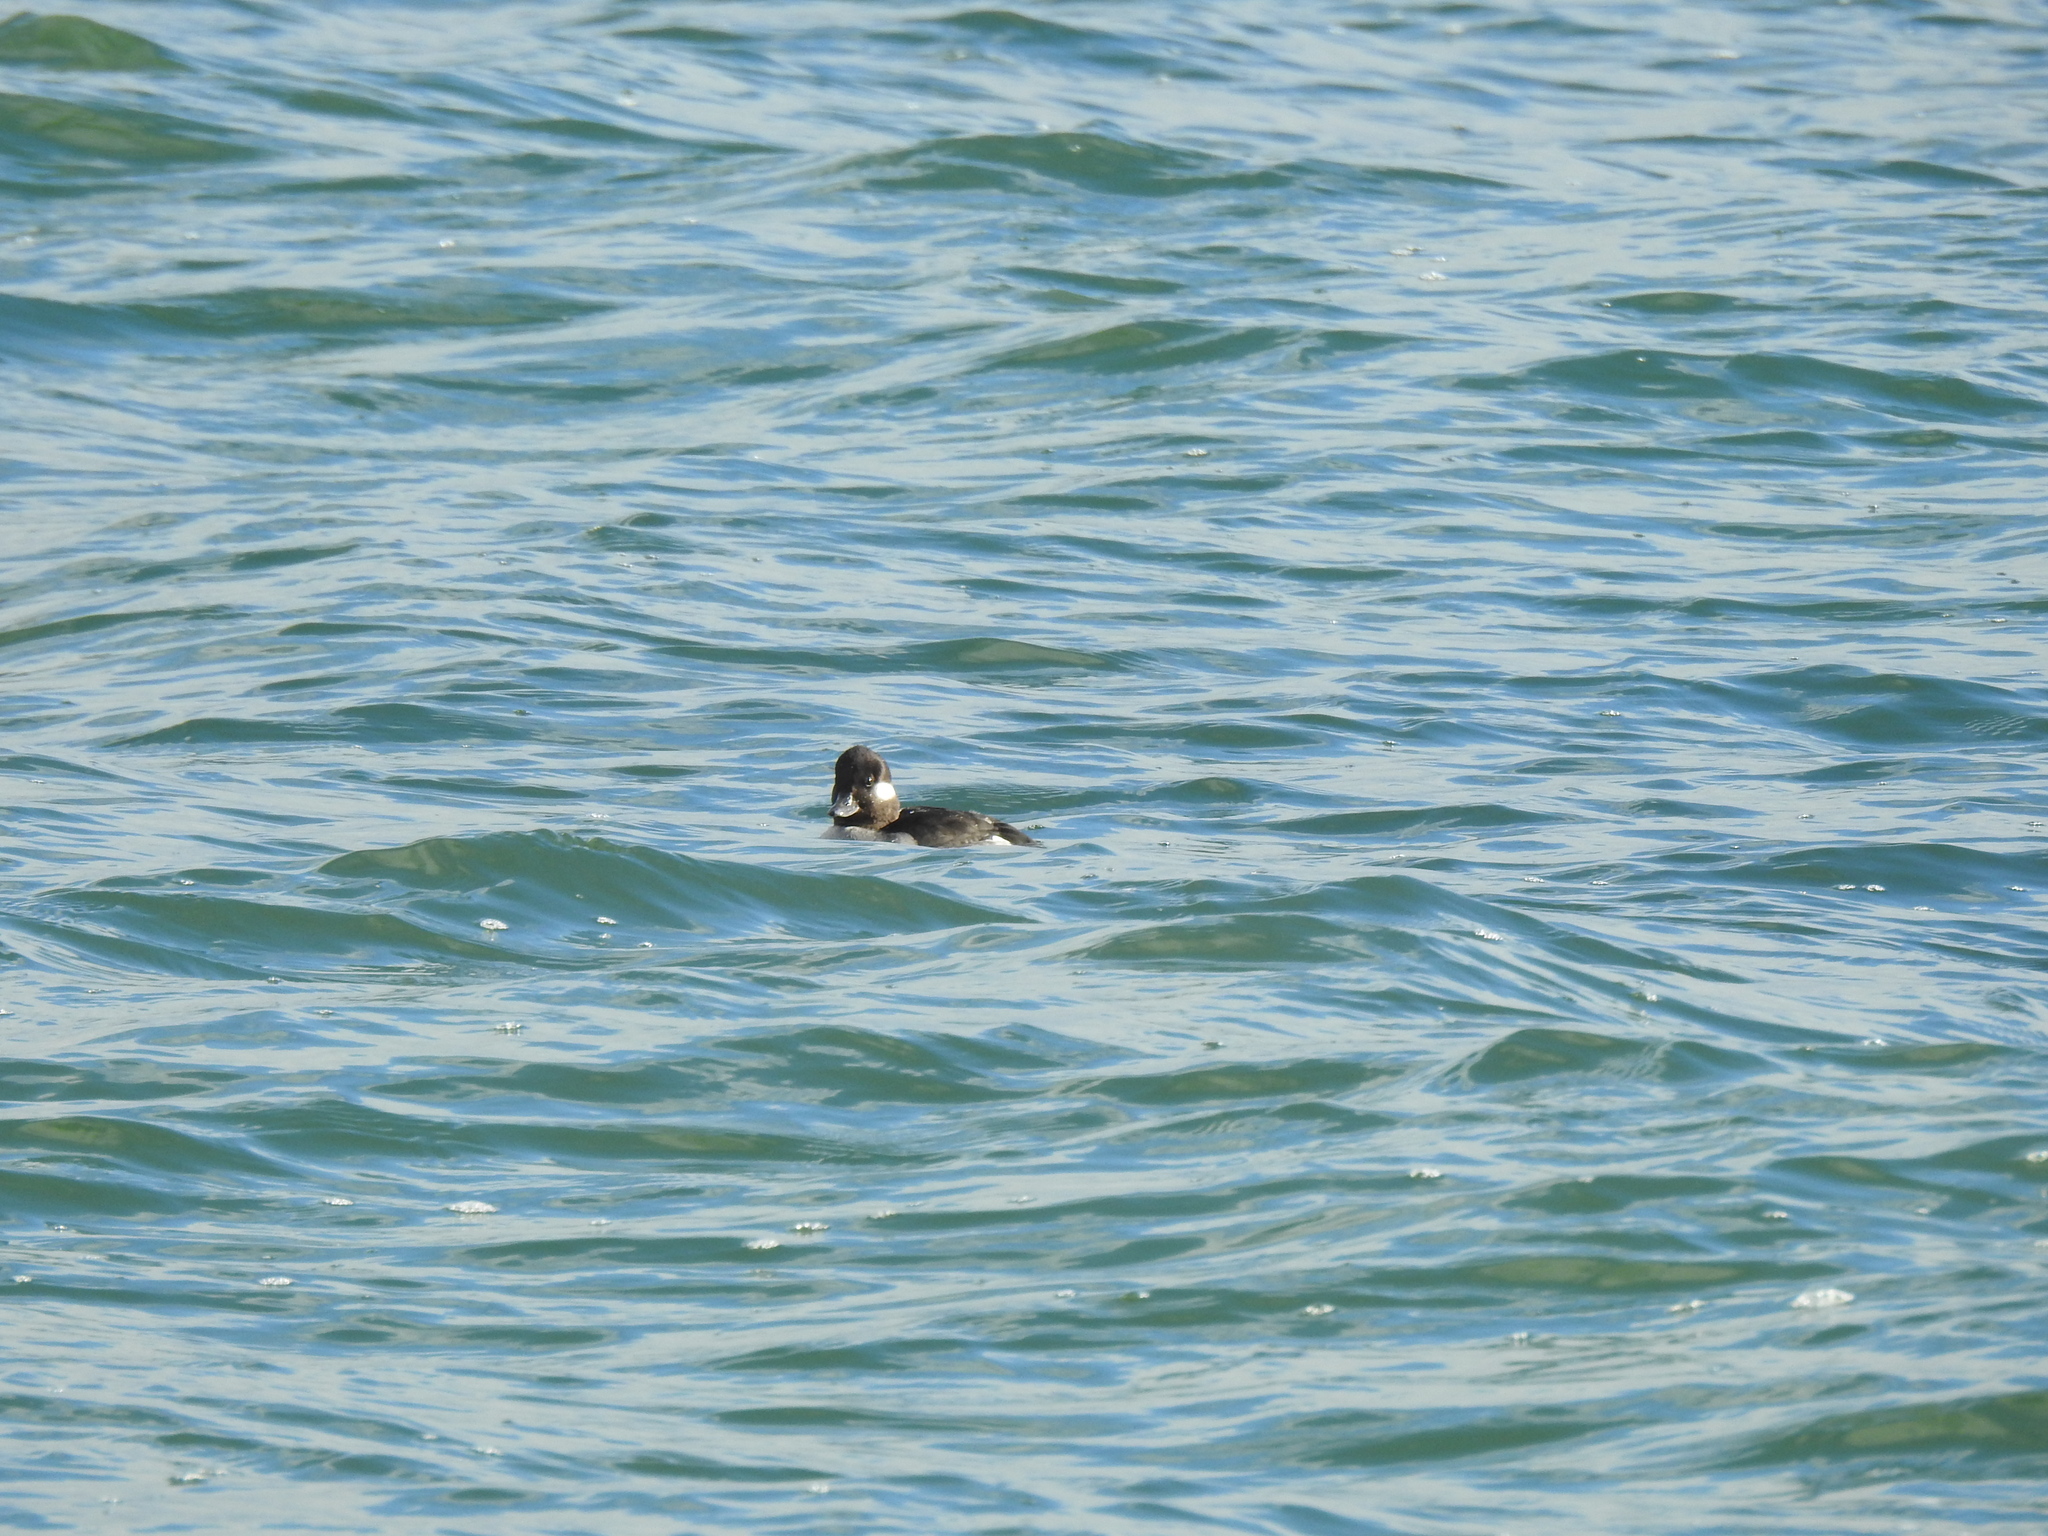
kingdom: Animalia
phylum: Chordata
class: Aves
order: Anseriformes
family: Anatidae
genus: Bucephala
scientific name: Bucephala albeola
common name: Bufflehead
